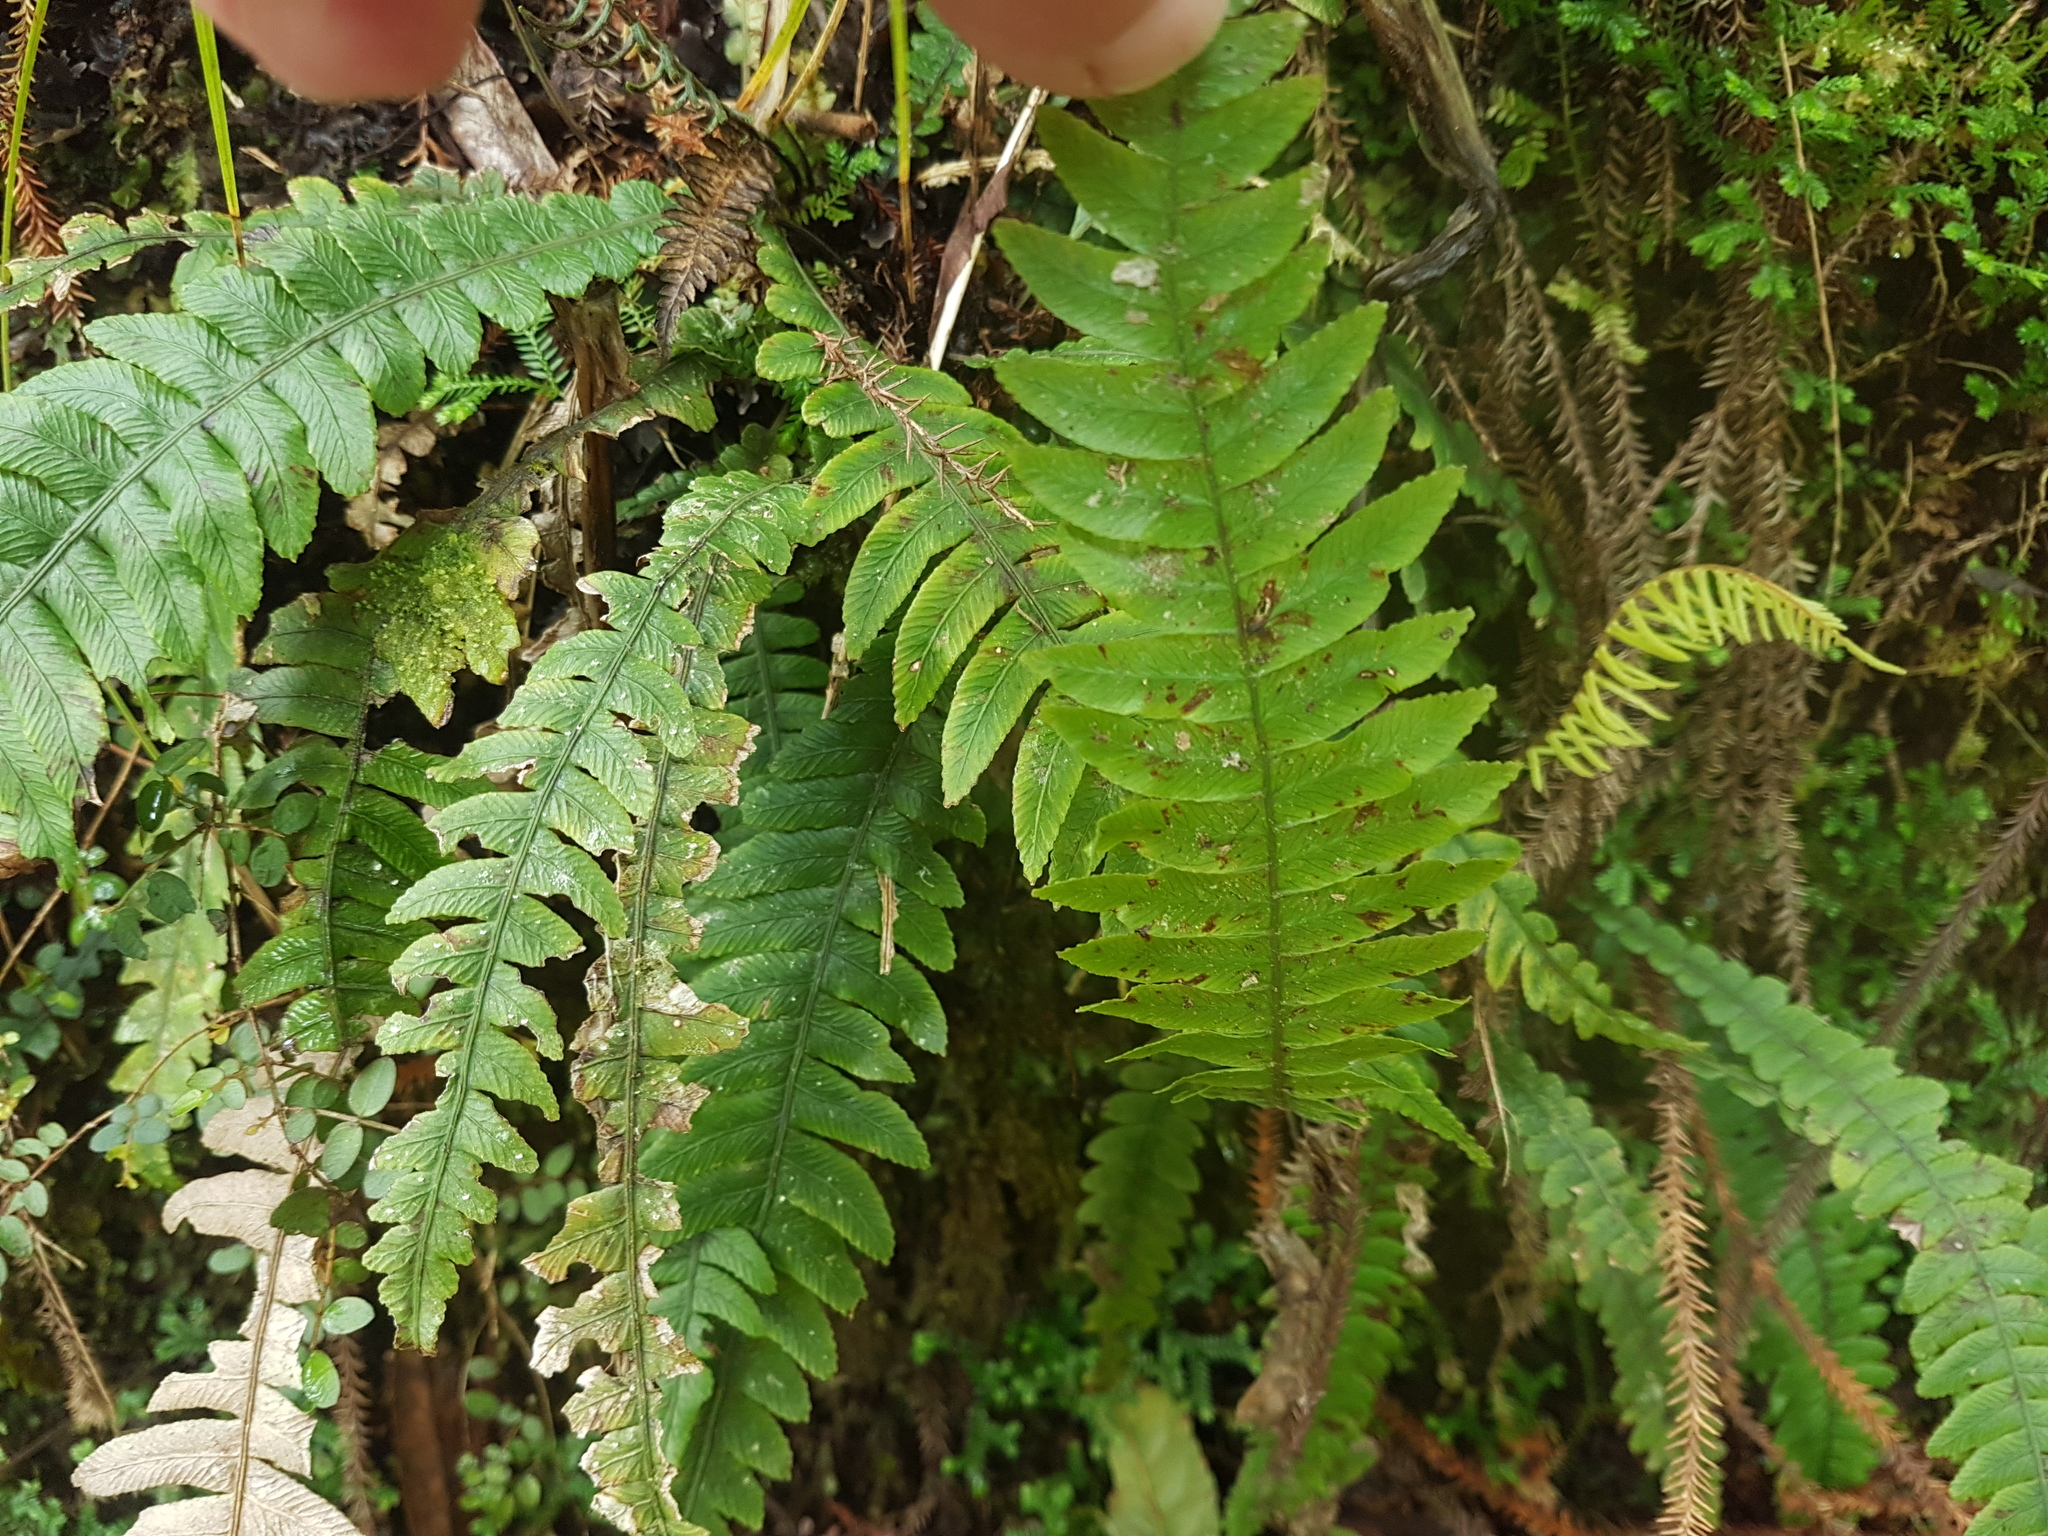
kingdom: Plantae
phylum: Tracheophyta
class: Polypodiopsida
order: Polypodiales
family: Blechnaceae
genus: Austroblechnum
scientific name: Austroblechnum lanceolatum
